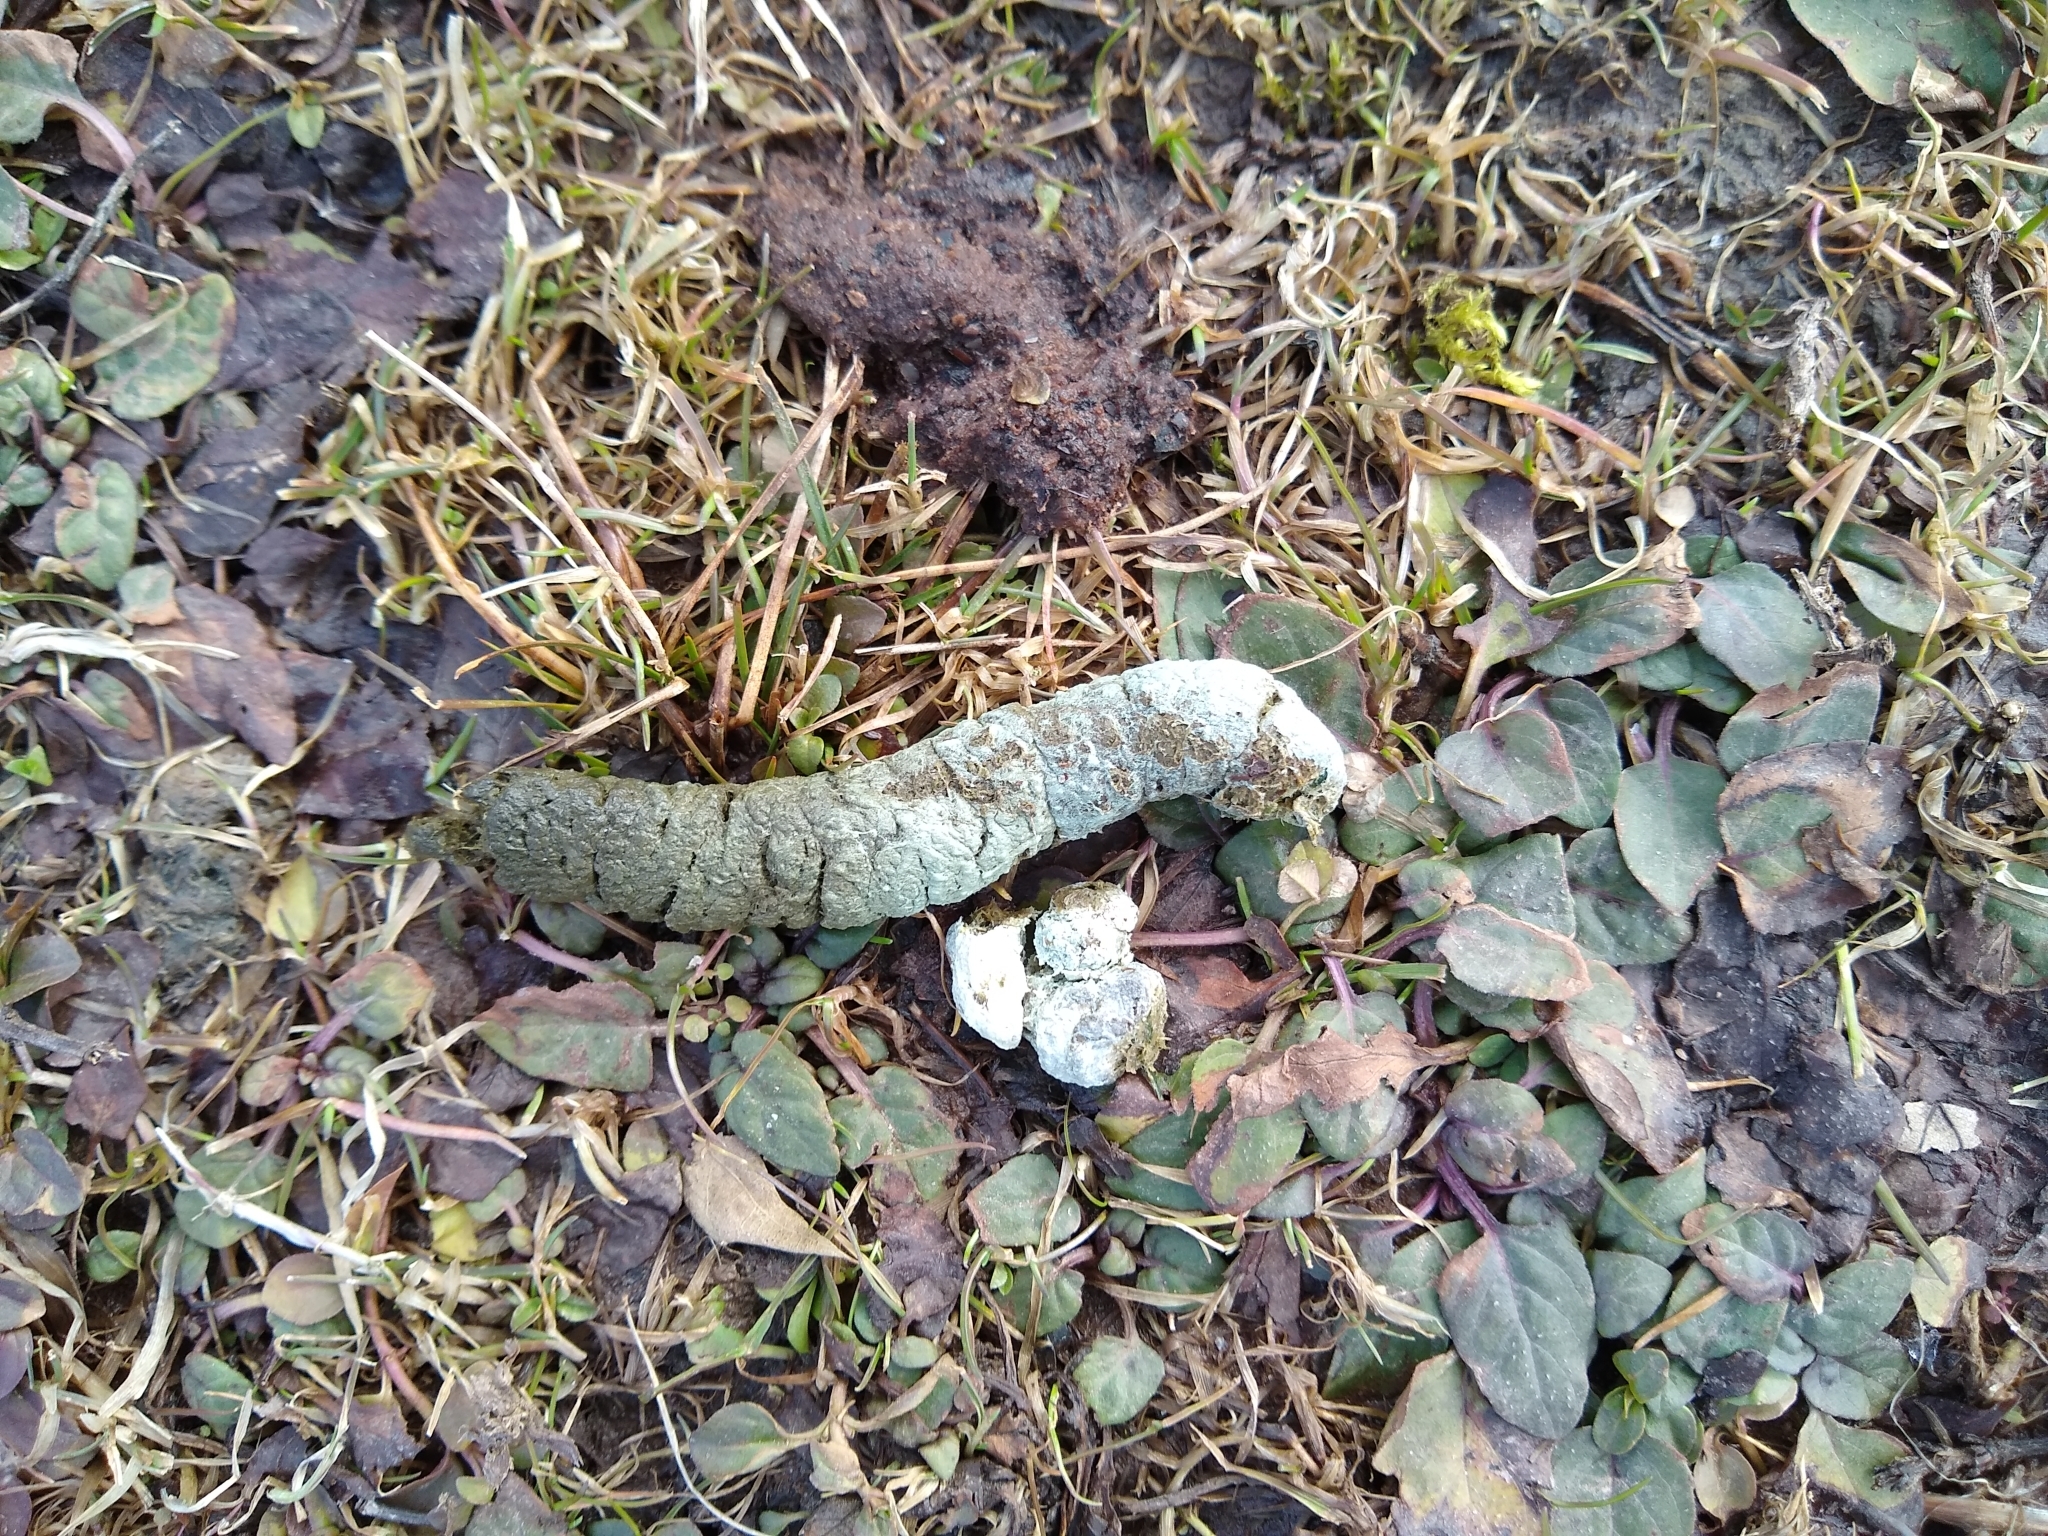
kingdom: Animalia
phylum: Chordata
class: Aves
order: Anseriformes
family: Anatidae
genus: Branta
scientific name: Branta canadensis
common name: Canada goose
